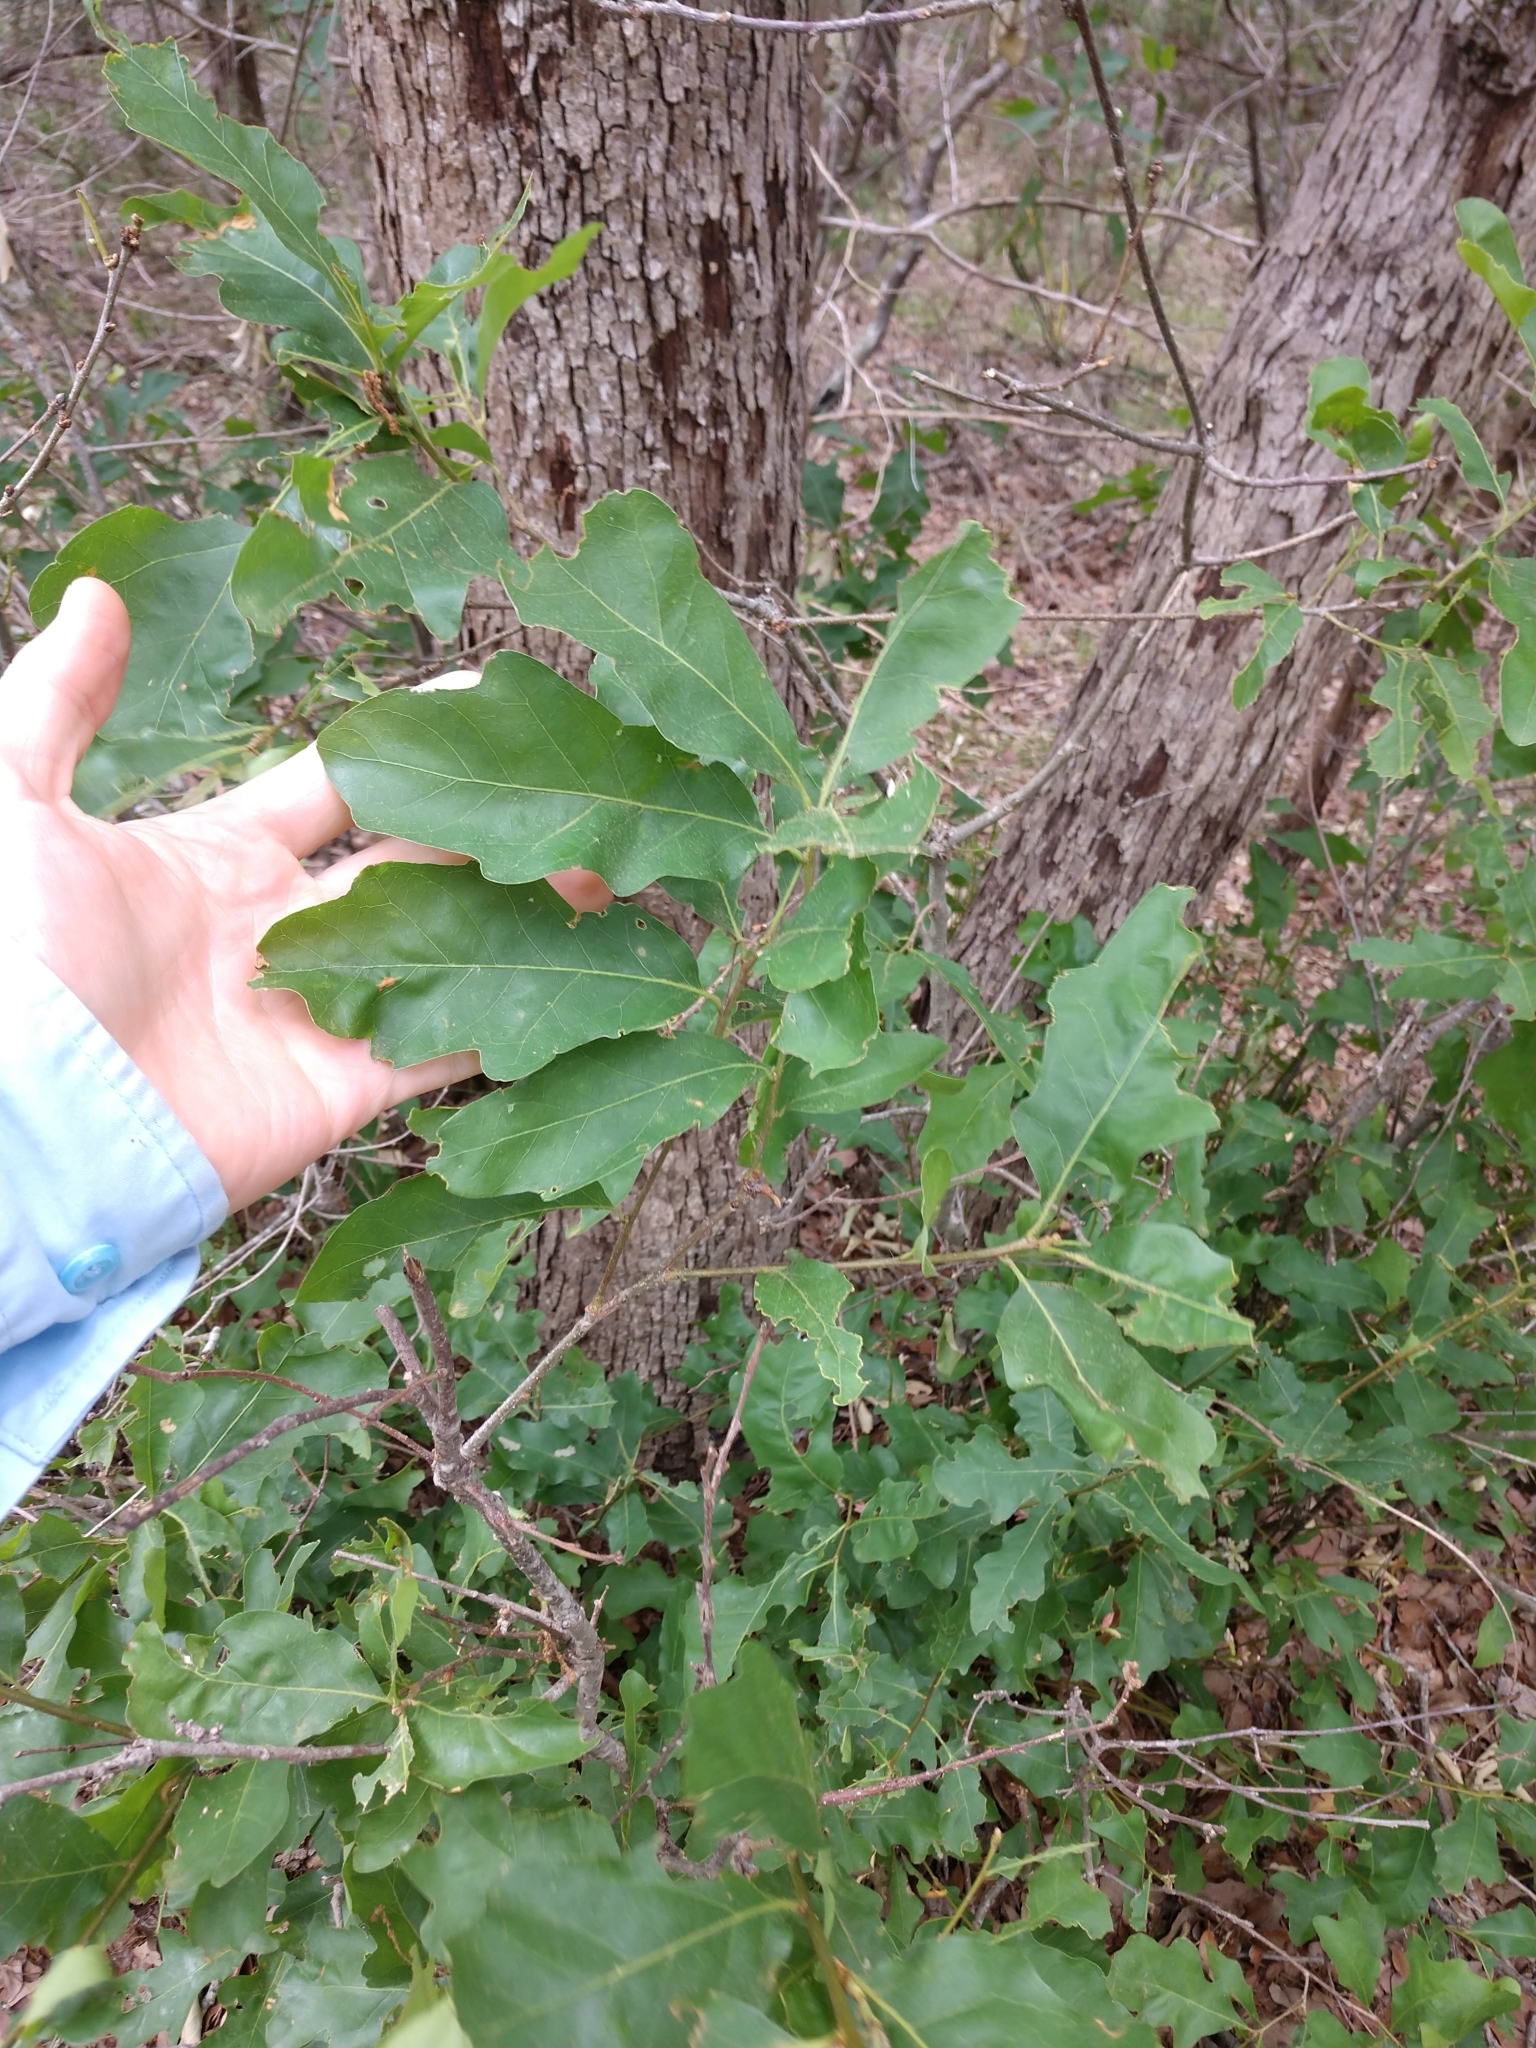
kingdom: Plantae
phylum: Tracheophyta
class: Magnoliopsida
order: Fagales
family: Fagaceae
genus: Quercus
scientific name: Quercus sinuata
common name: Durand oak
